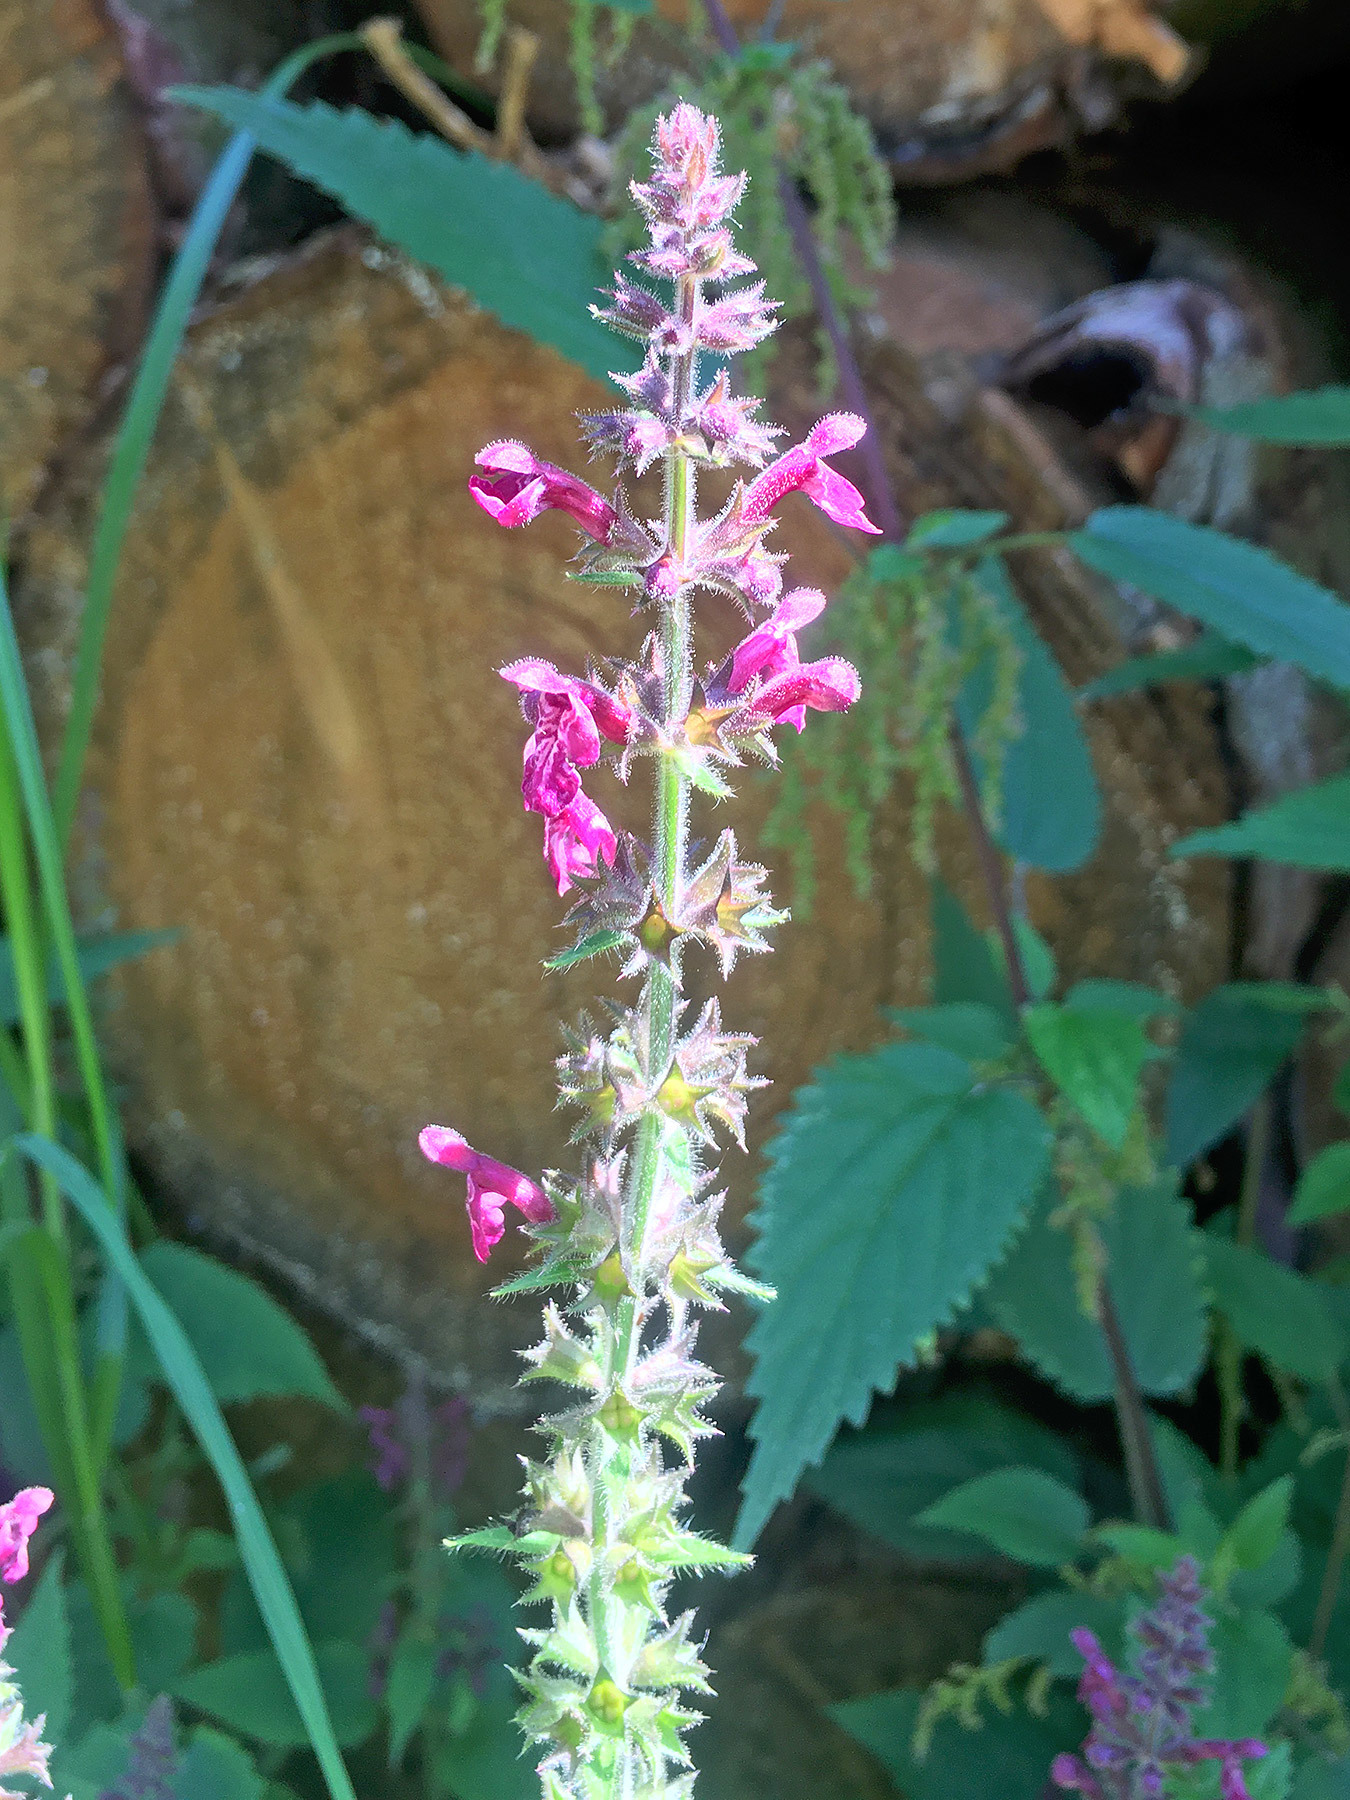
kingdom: Plantae
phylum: Tracheophyta
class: Magnoliopsida
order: Lamiales
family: Lamiaceae
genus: Stachys
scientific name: Stachys sylvatica
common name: Hedge woundwort
